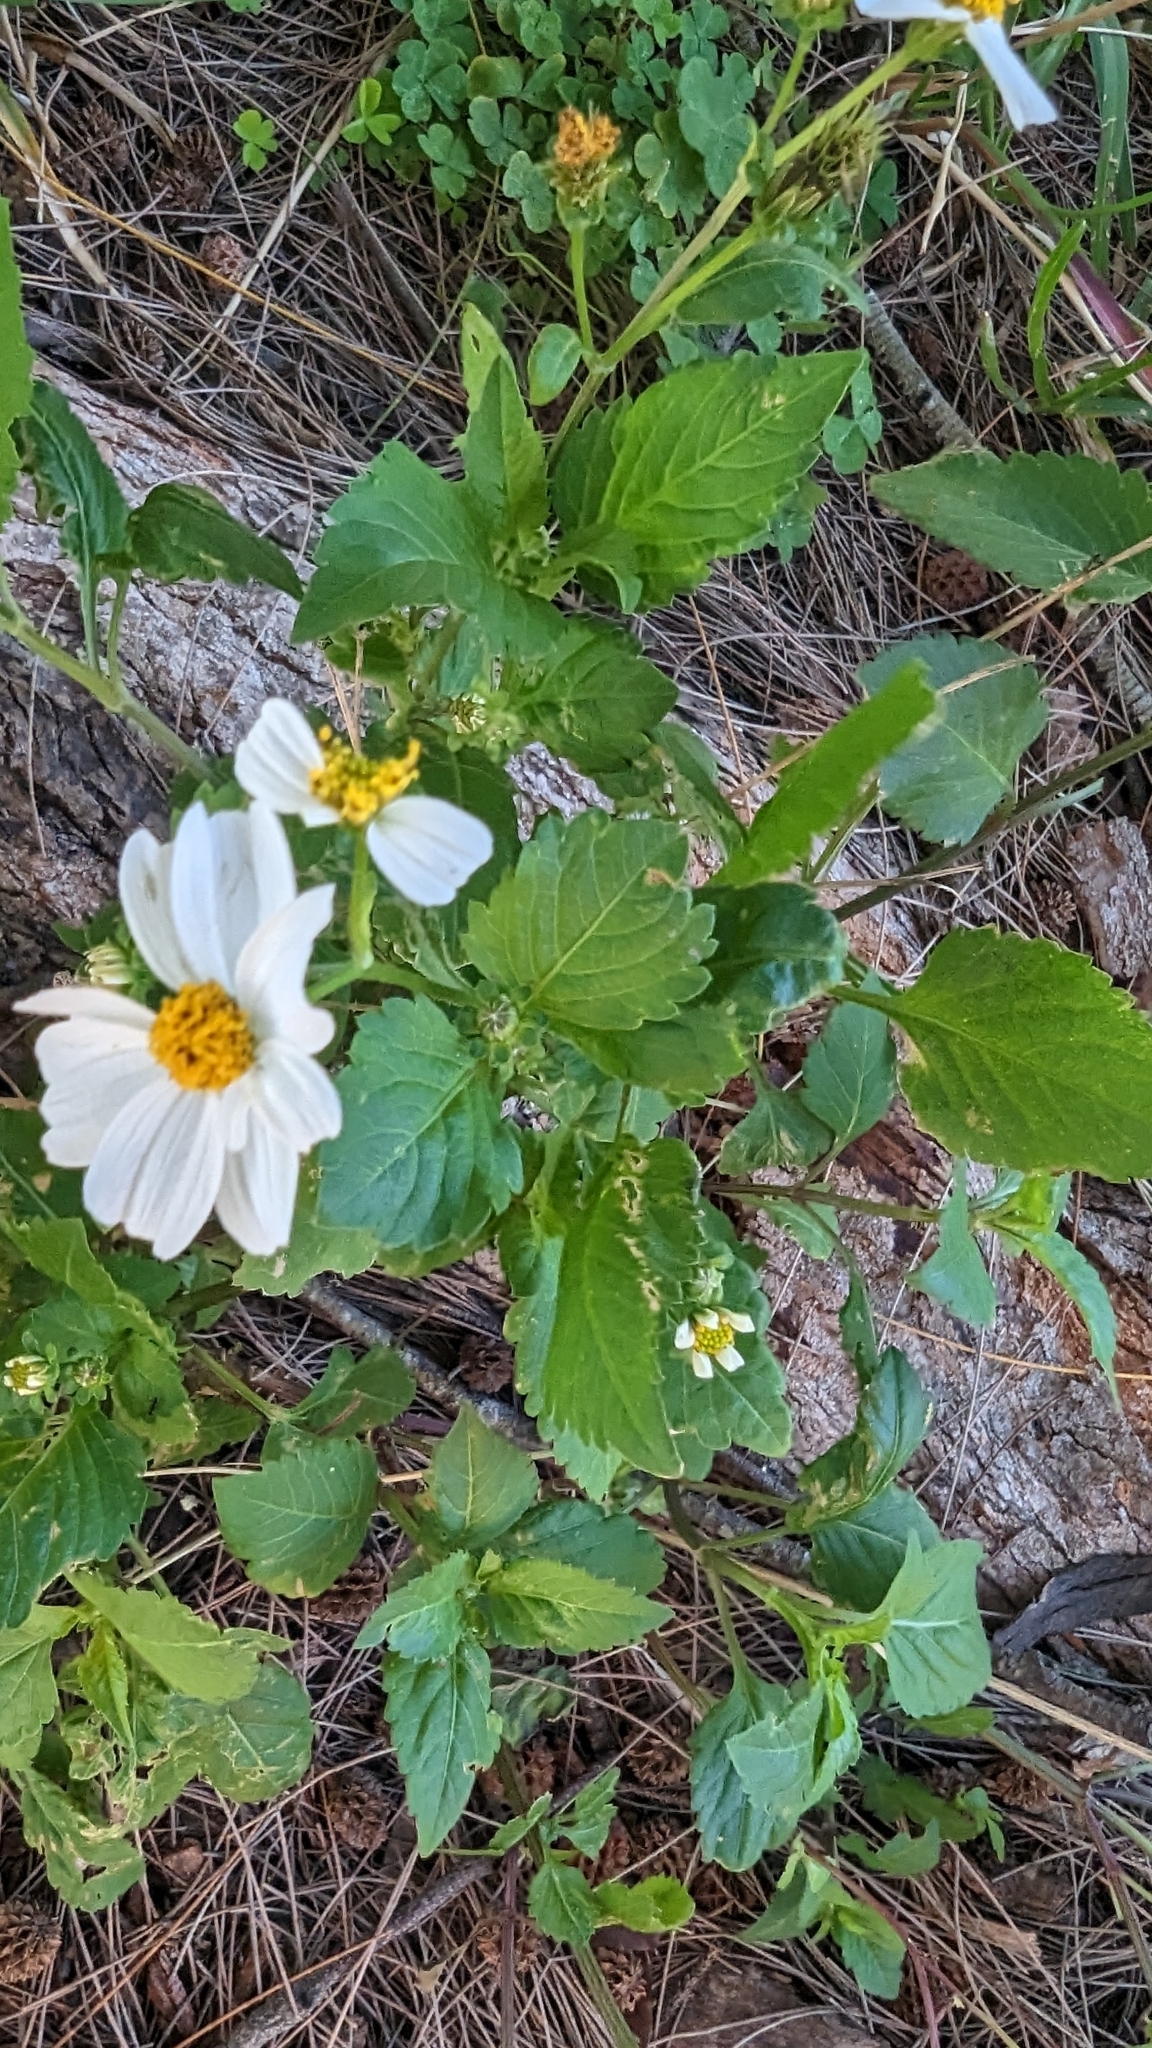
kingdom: Plantae
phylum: Tracheophyta
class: Magnoliopsida
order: Asterales
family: Asteraceae
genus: Bidens
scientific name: Bidens alba
